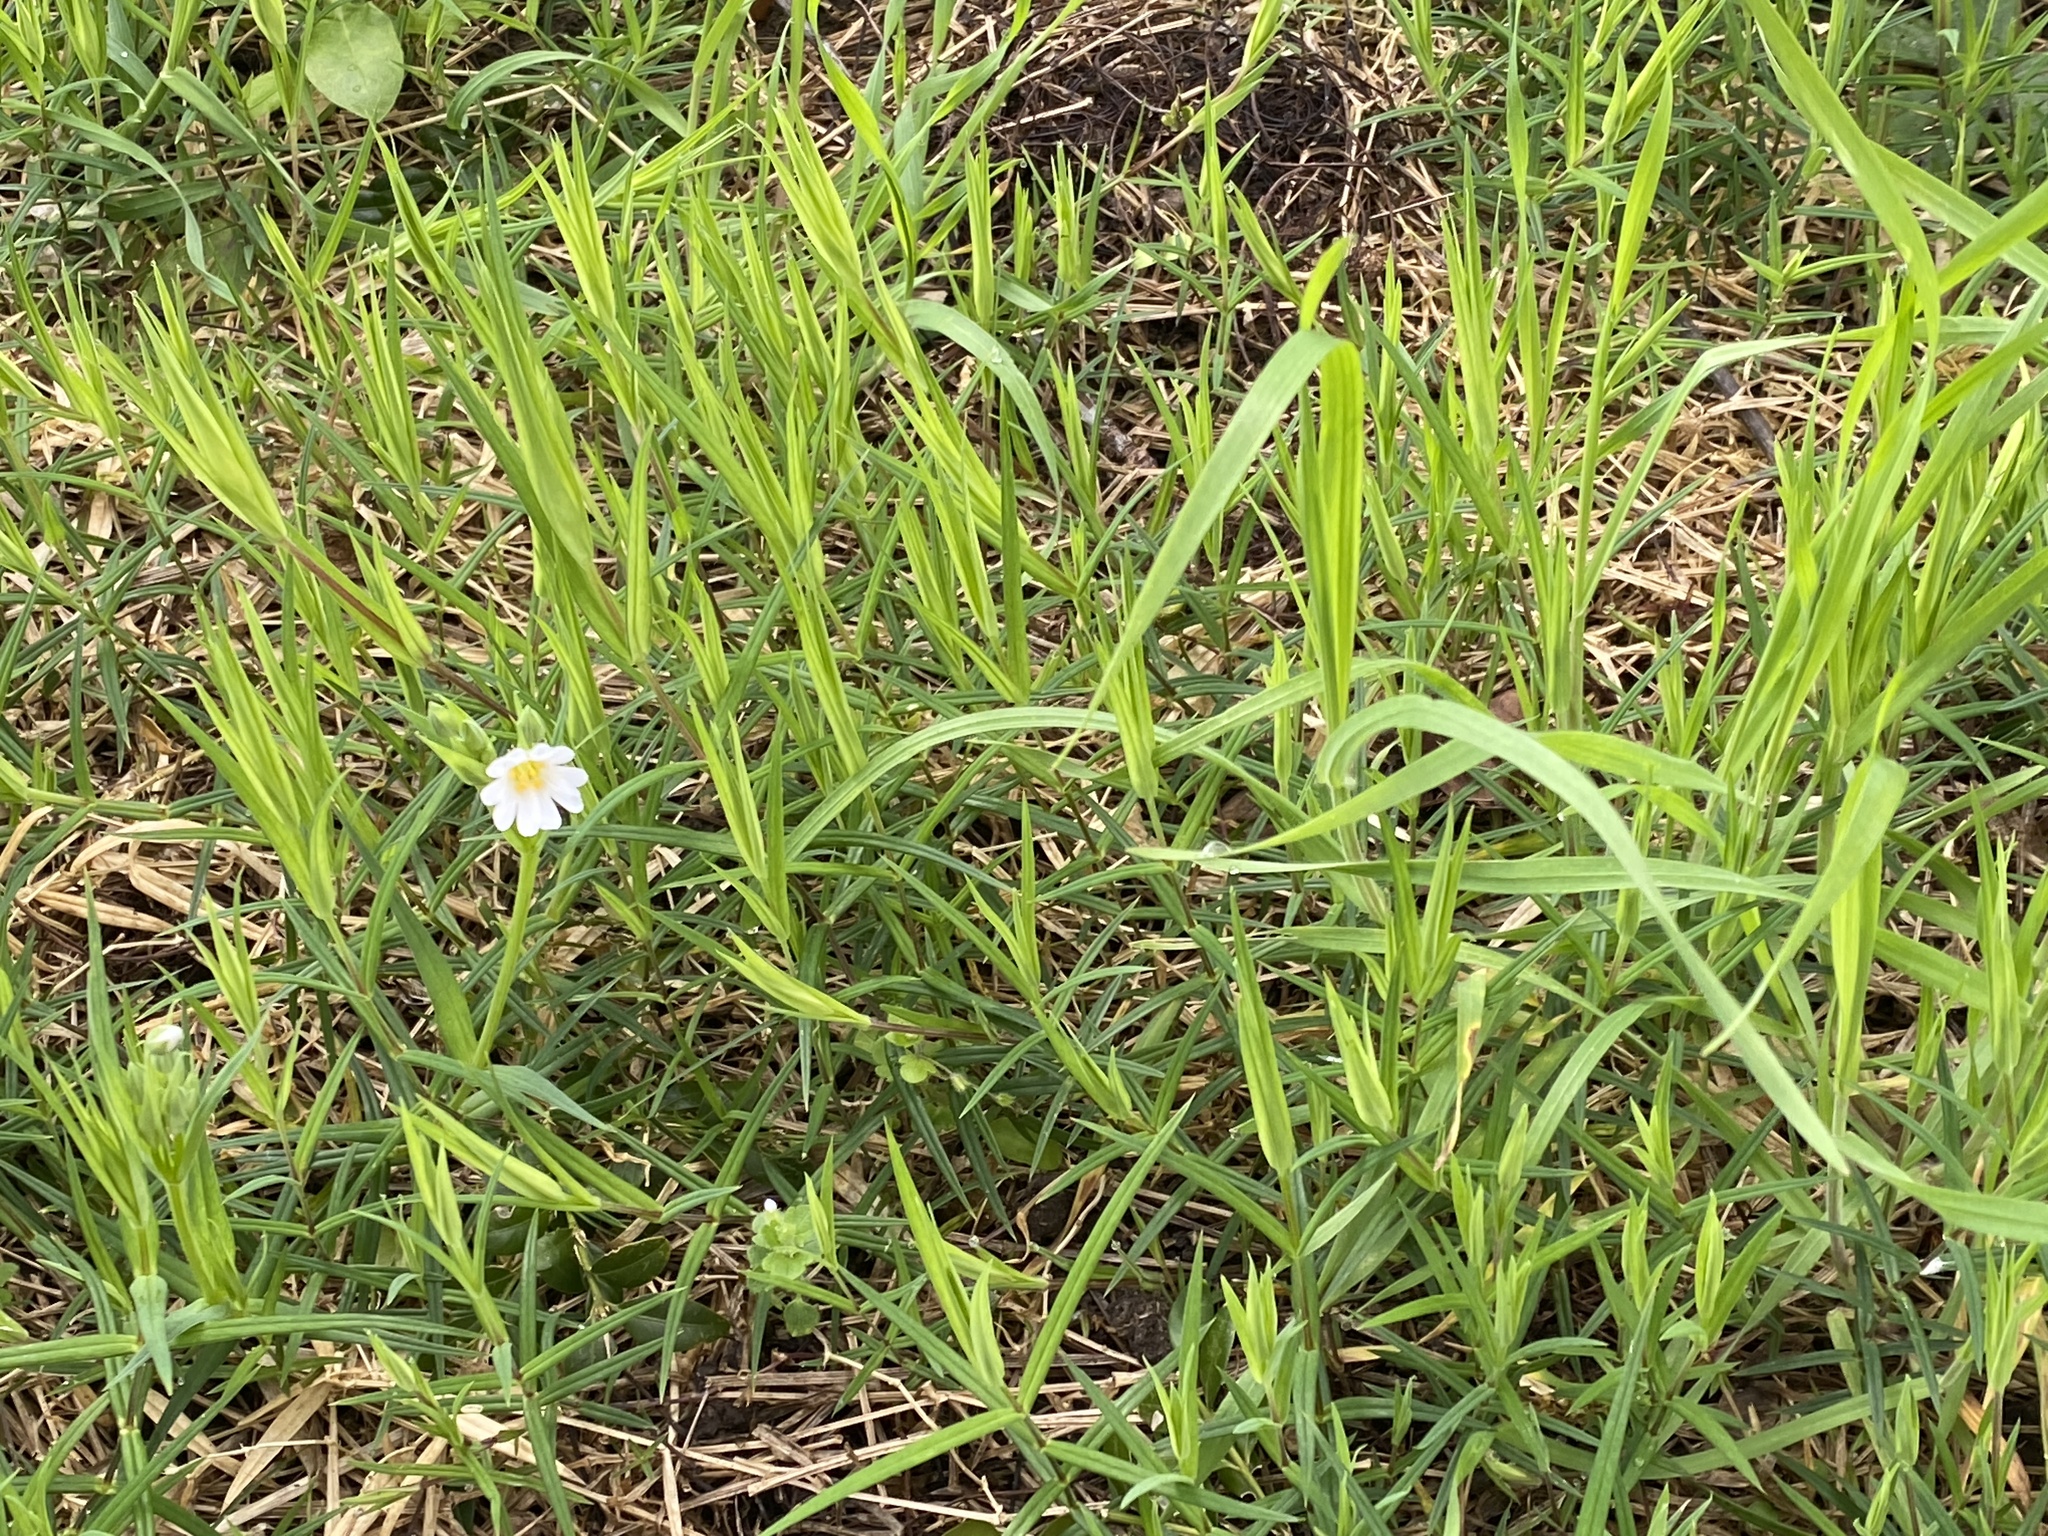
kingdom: Plantae
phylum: Tracheophyta
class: Magnoliopsida
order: Caryophyllales
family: Caryophyllaceae
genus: Rabelera
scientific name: Rabelera holostea
